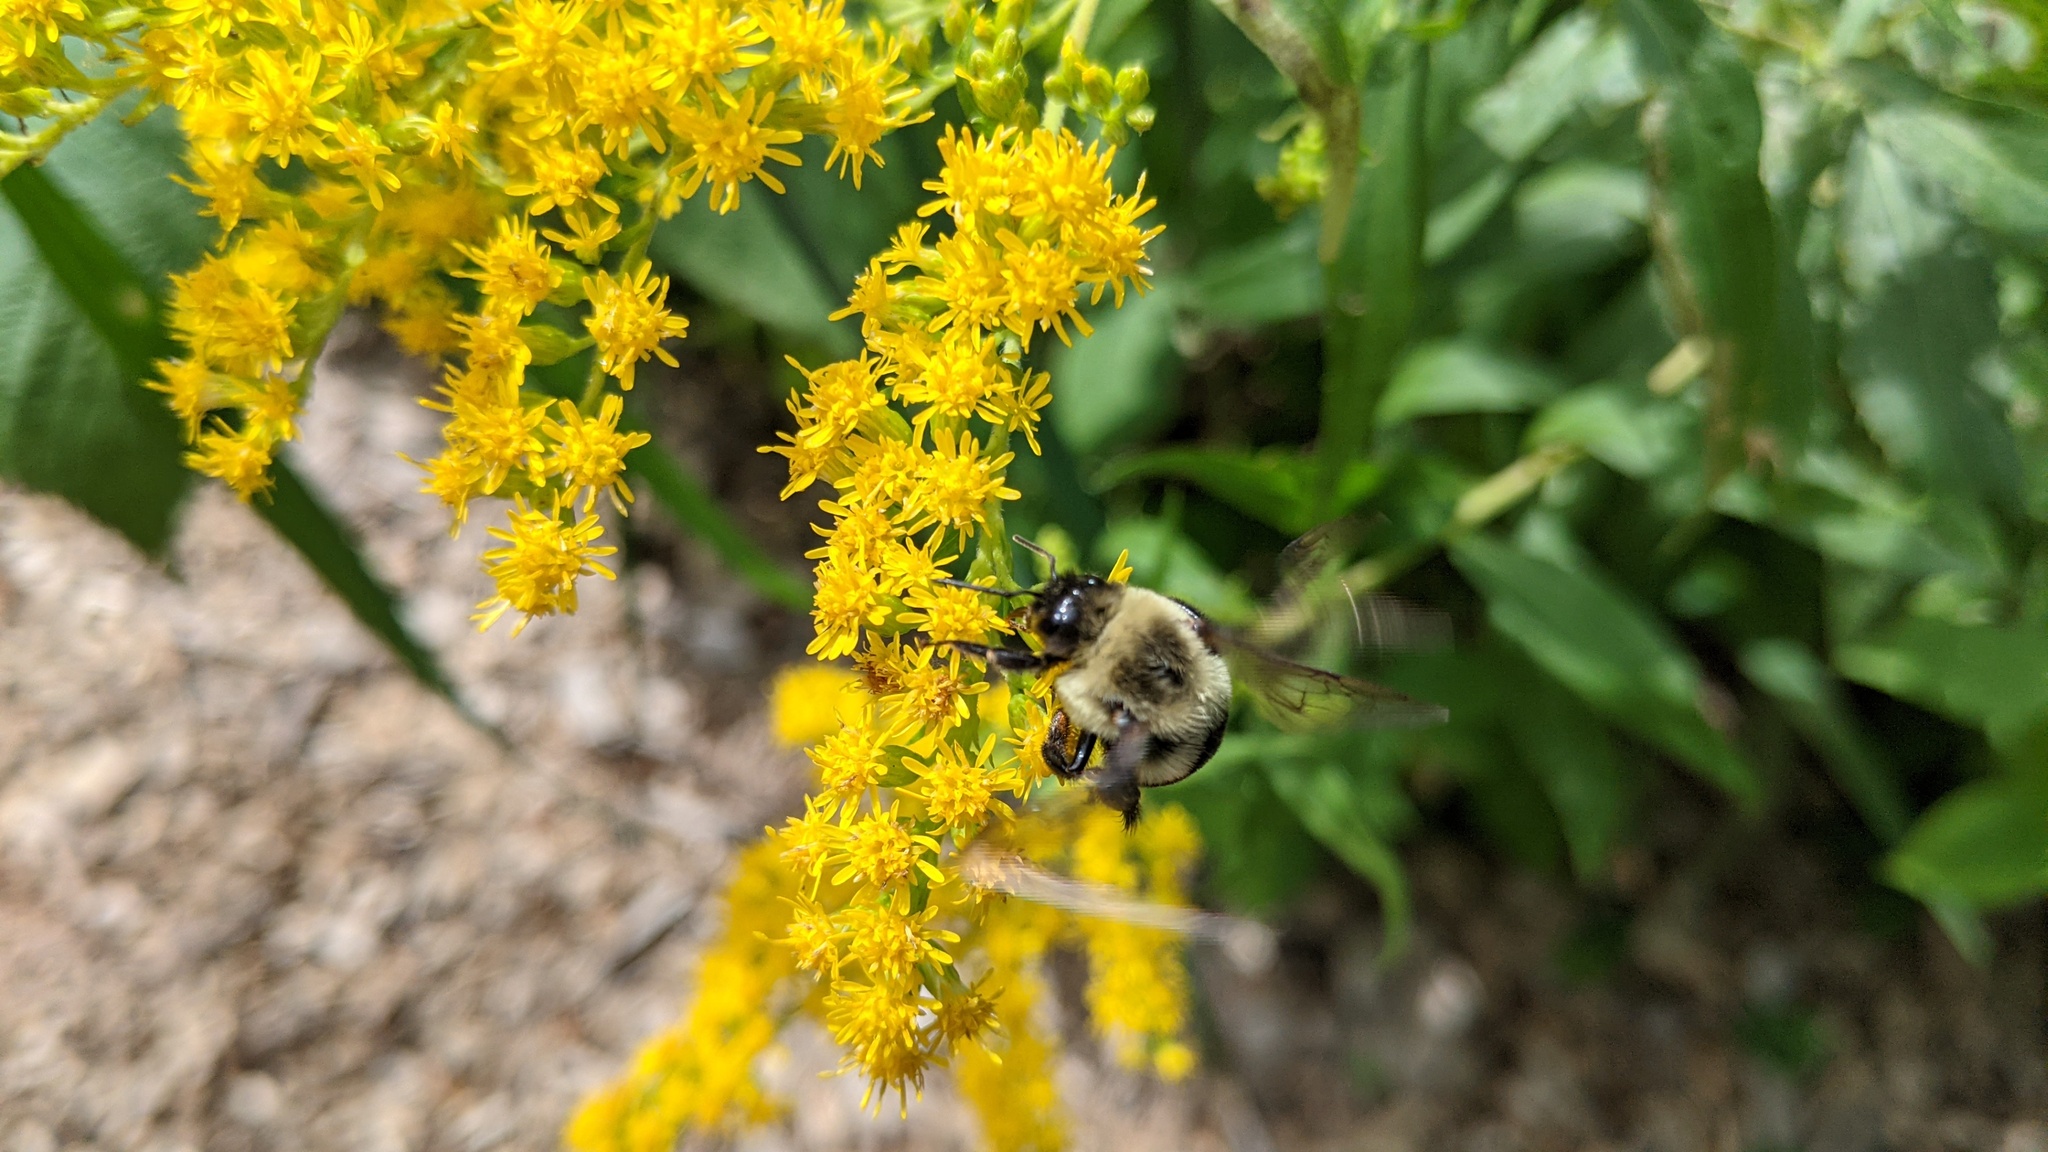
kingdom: Animalia
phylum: Arthropoda
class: Insecta
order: Hymenoptera
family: Apidae
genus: Bombus
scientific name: Bombus impatiens
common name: Common eastern bumble bee
